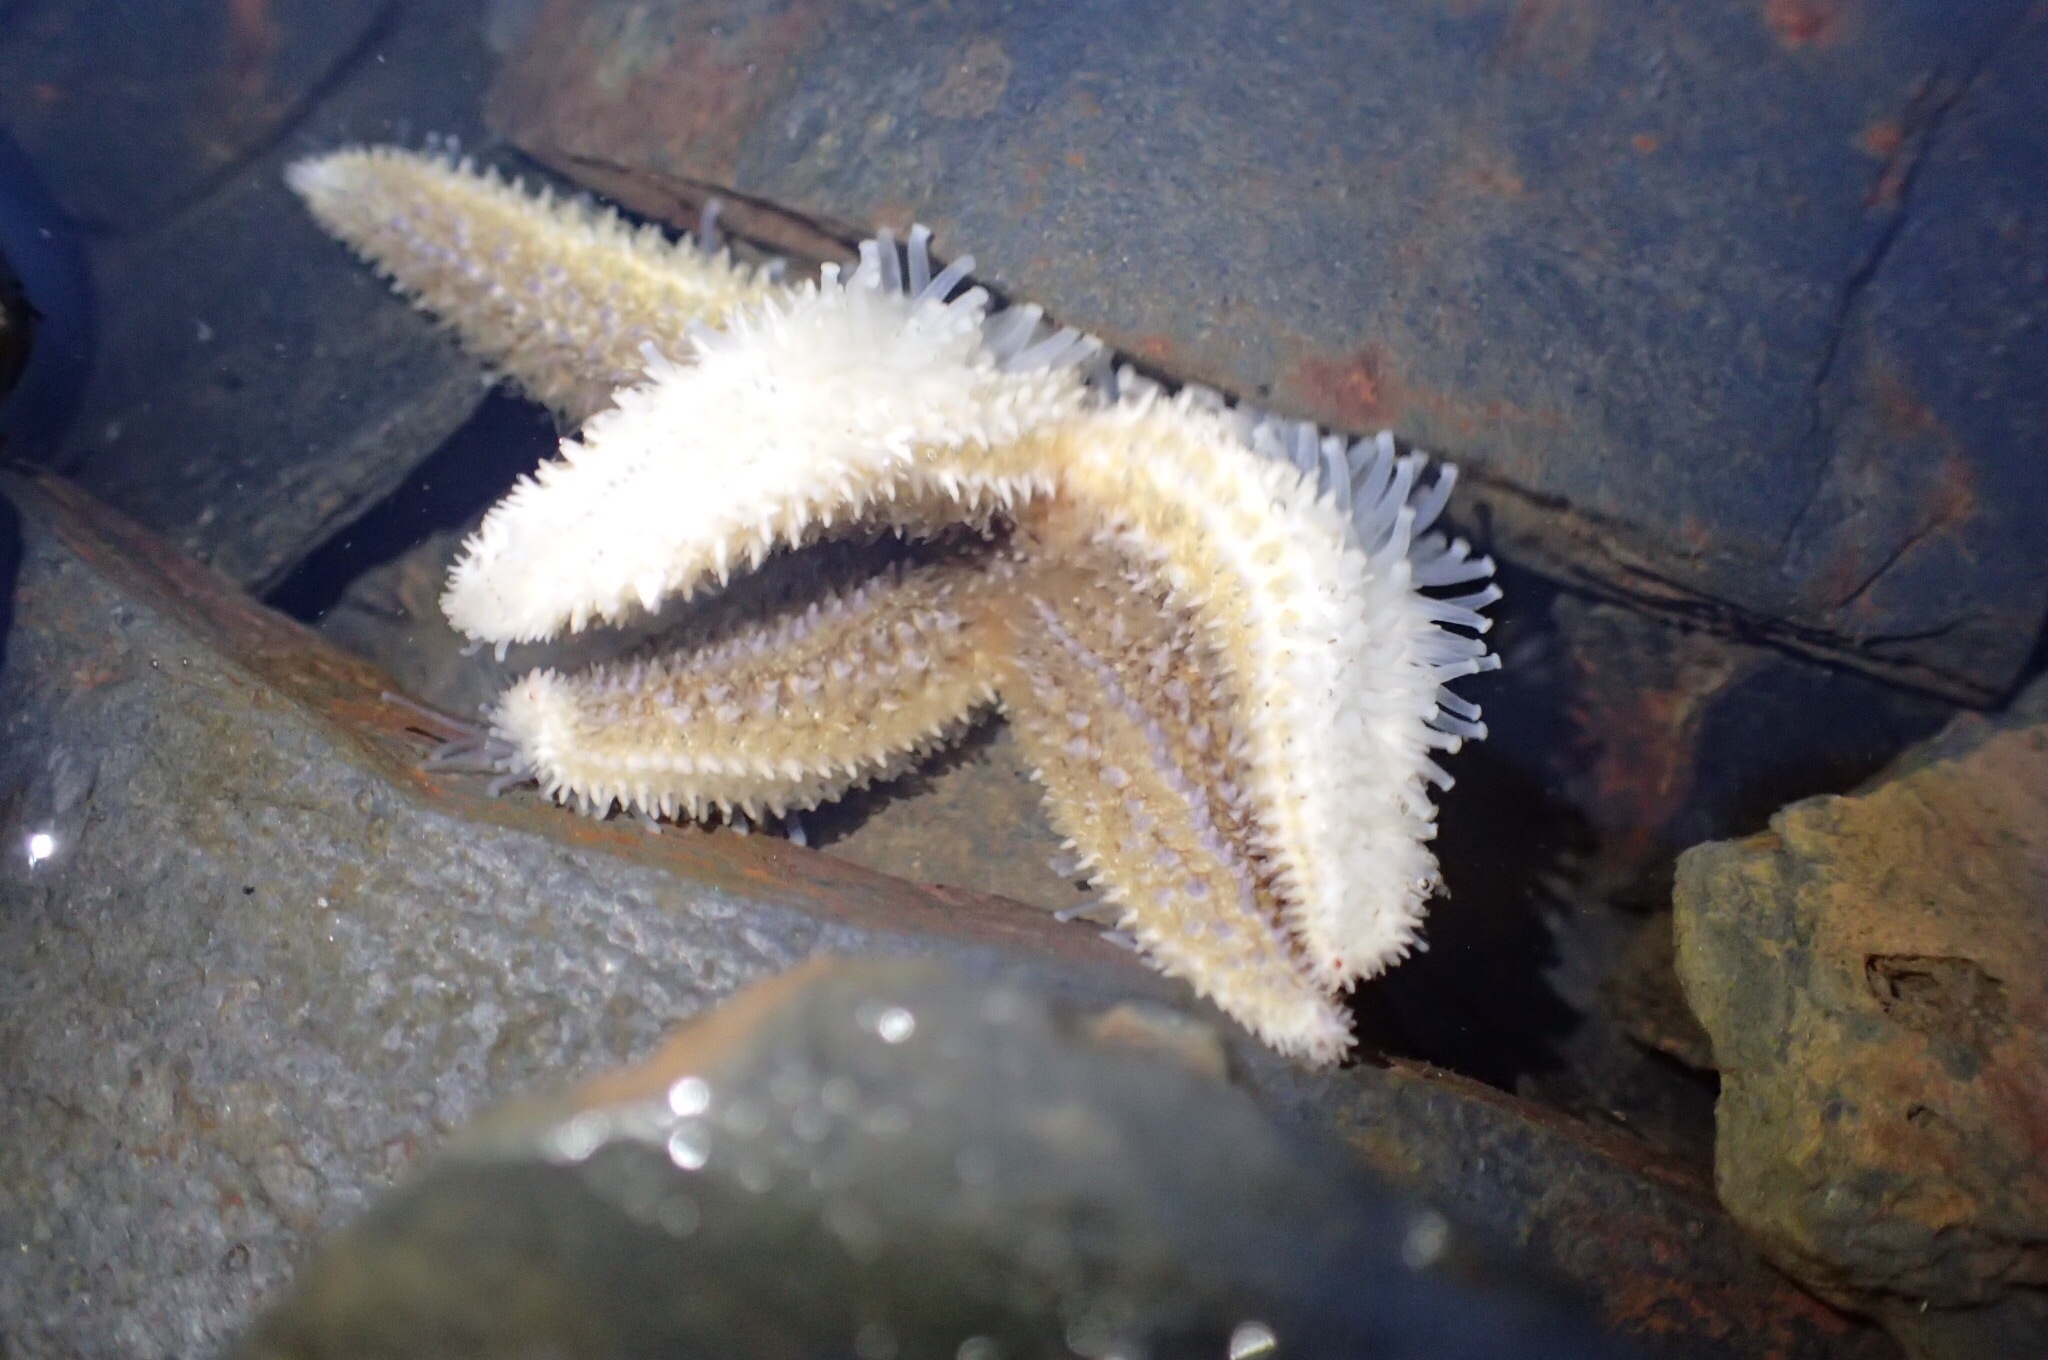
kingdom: Animalia
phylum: Echinodermata
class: Asteroidea
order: Forcipulatida
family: Asteriidae
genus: Asterias
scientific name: Asterias rubens
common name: Common starfish
